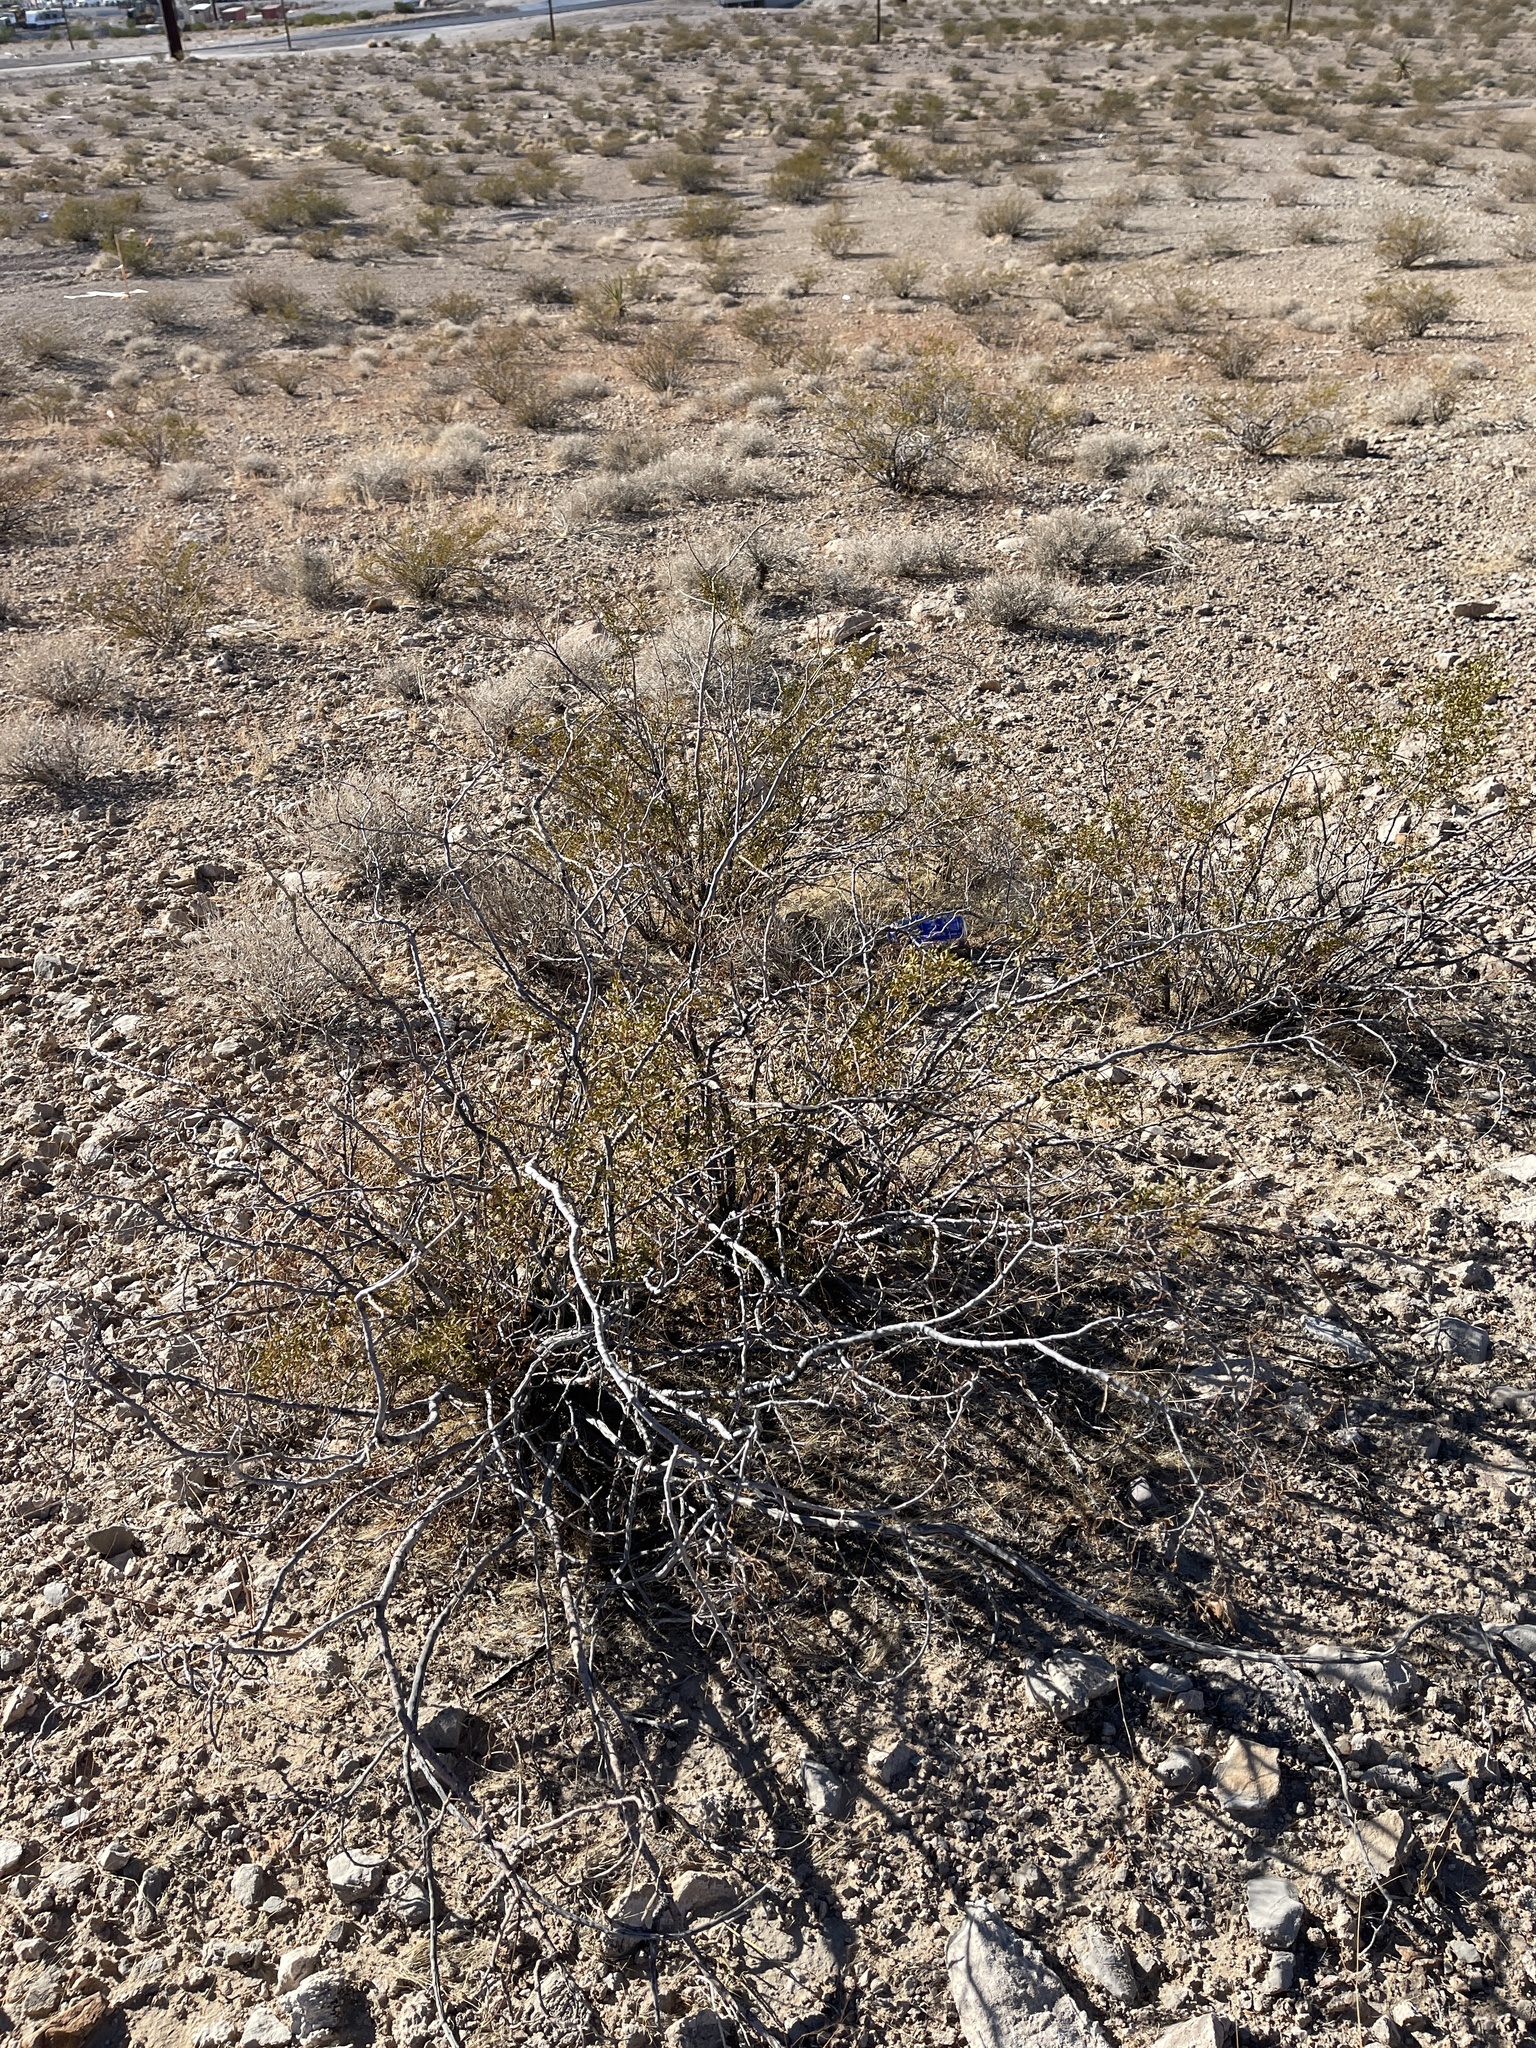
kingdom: Plantae
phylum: Tracheophyta
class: Magnoliopsida
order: Zygophyllales
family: Zygophyllaceae
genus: Larrea
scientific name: Larrea tridentata
